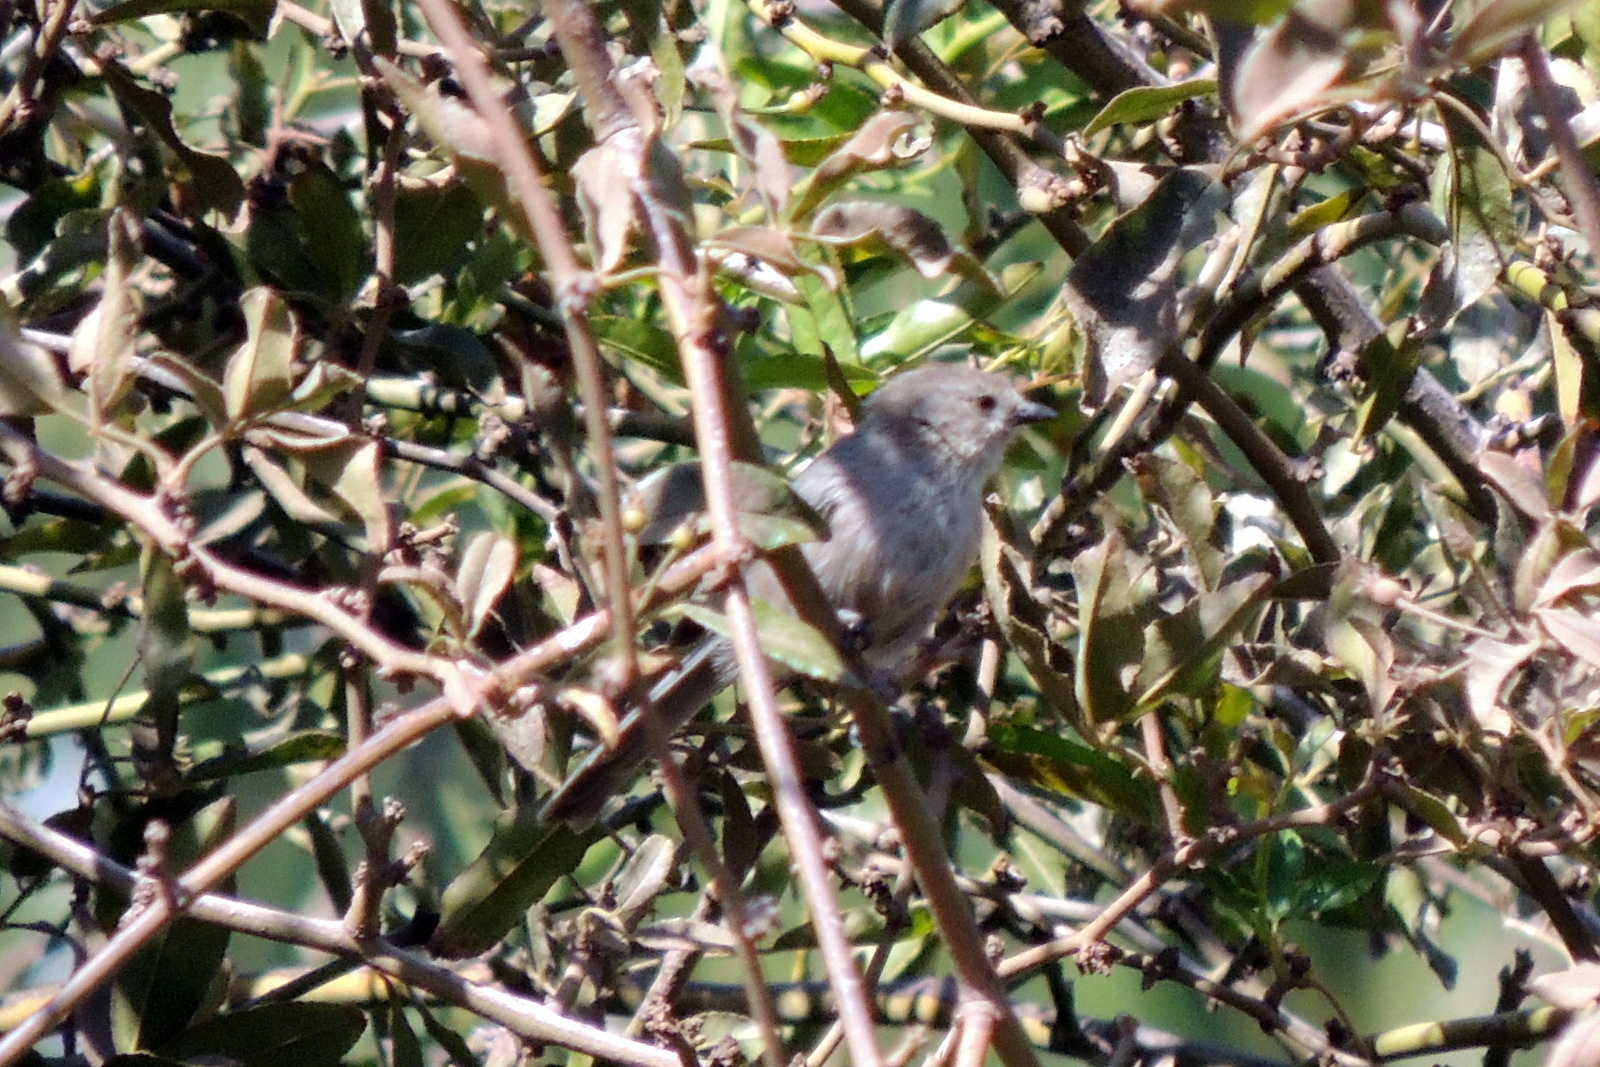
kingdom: Animalia
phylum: Chordata
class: Aves
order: Passeriformes
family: Aegithalidae
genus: Psaltriparus
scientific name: Psaltriparus minimus
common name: American bushtit
